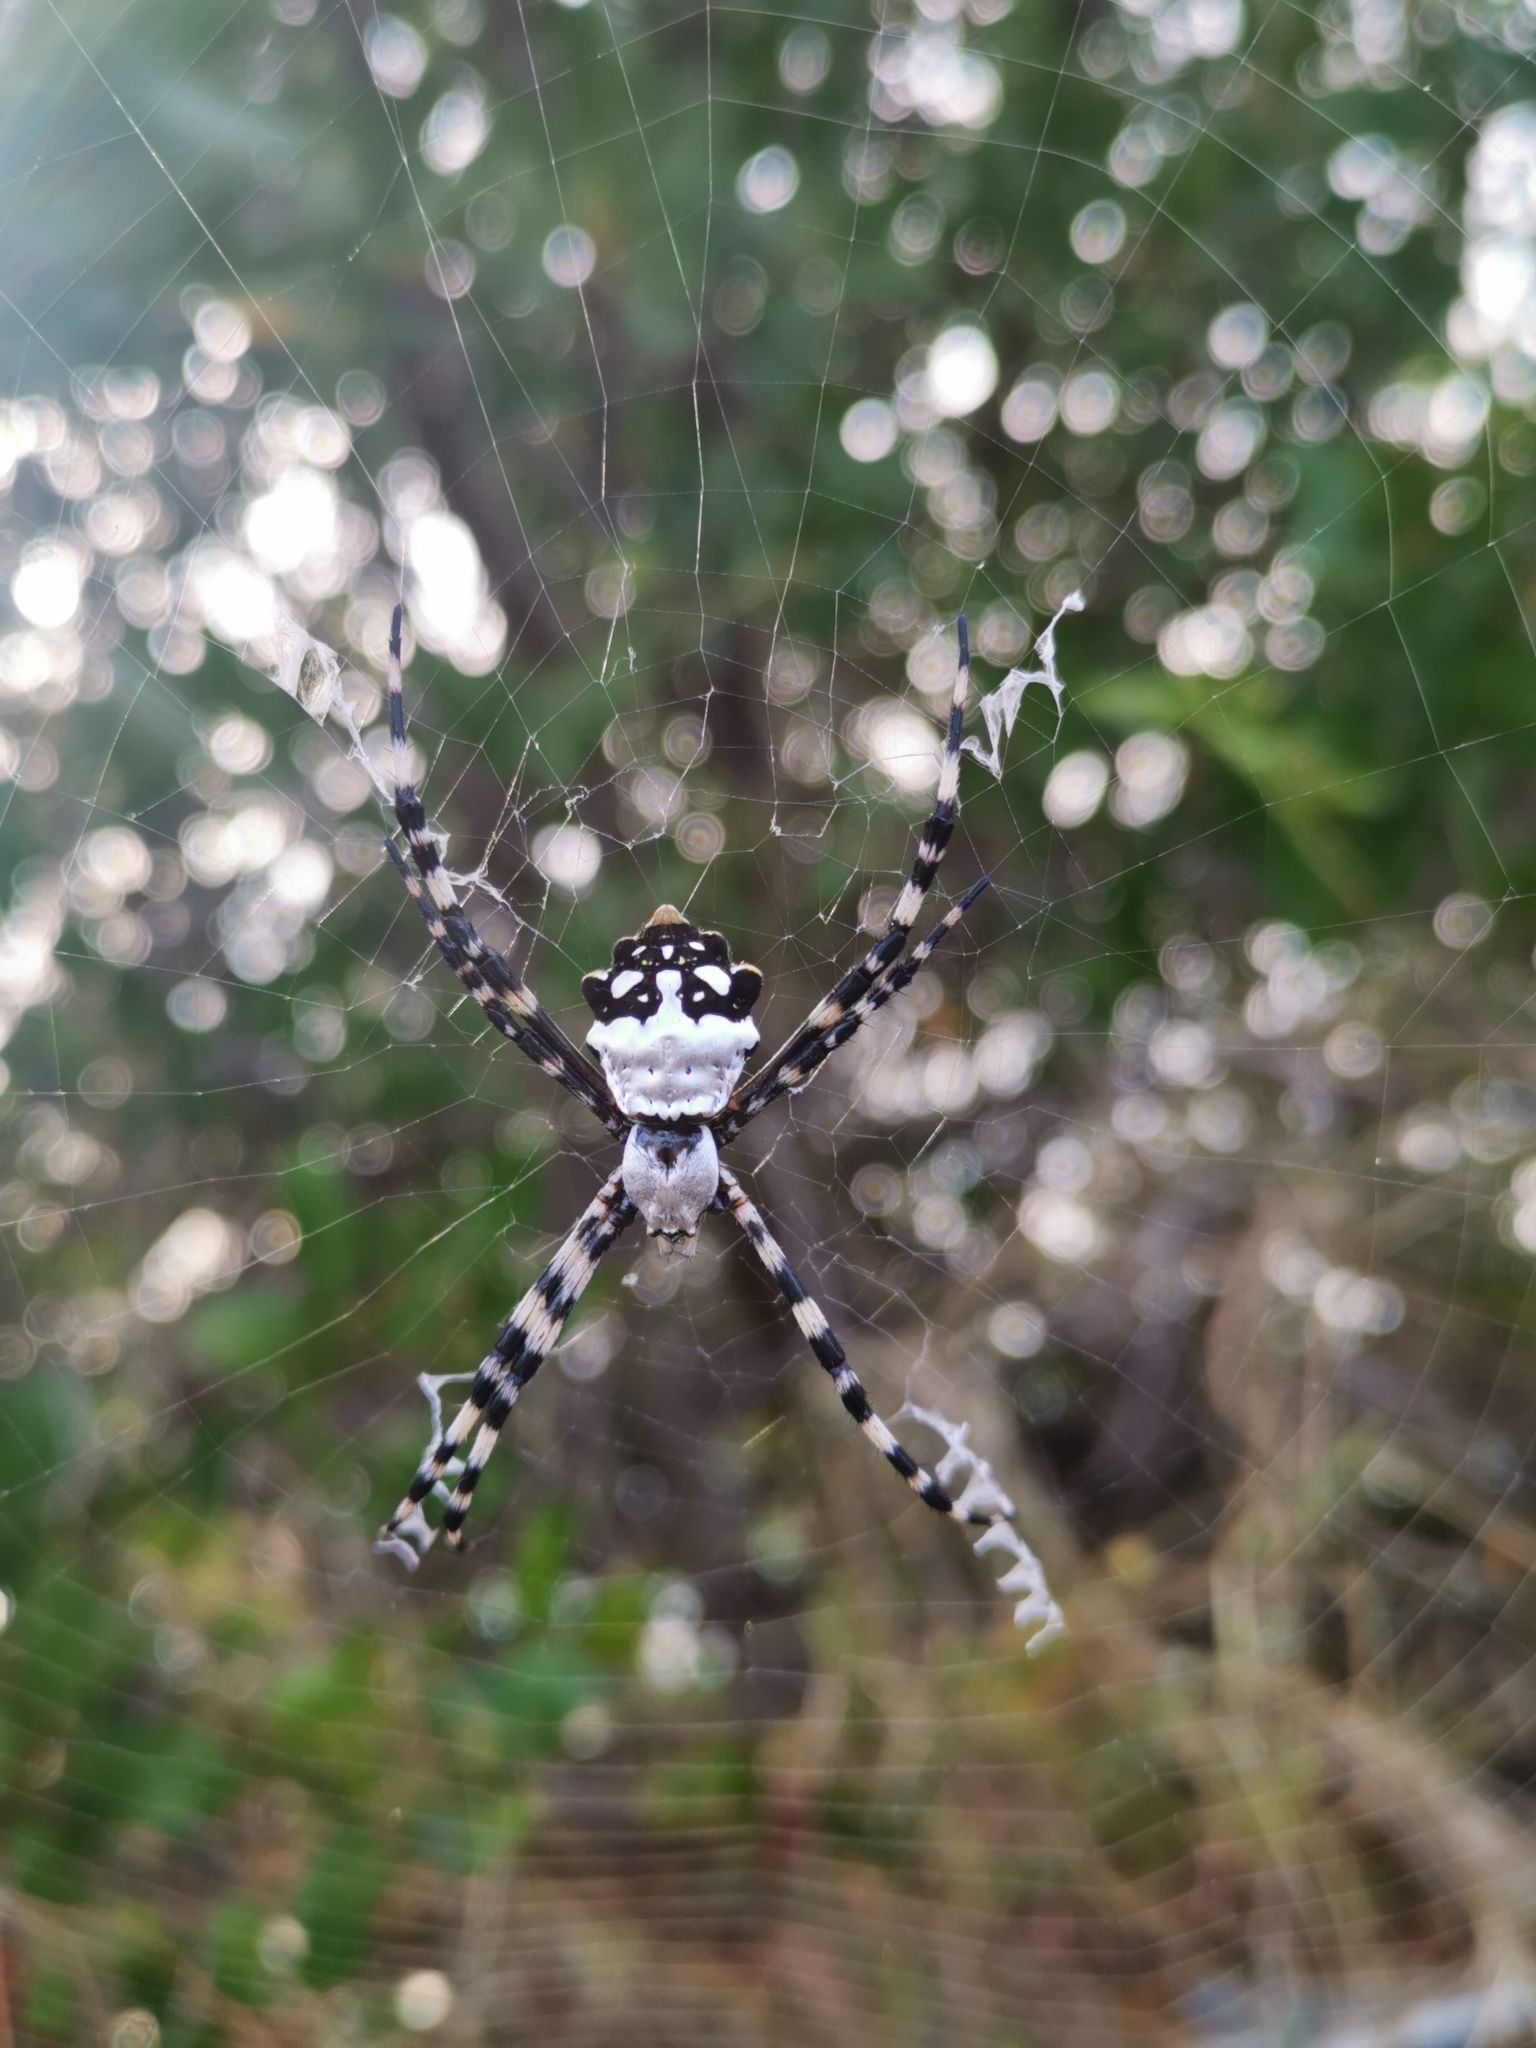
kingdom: Animalia
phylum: Arthropoda
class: Arachnida
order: Araneae
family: Araneidae
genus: Argiope
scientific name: Argiope argentata
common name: Orb weavers
